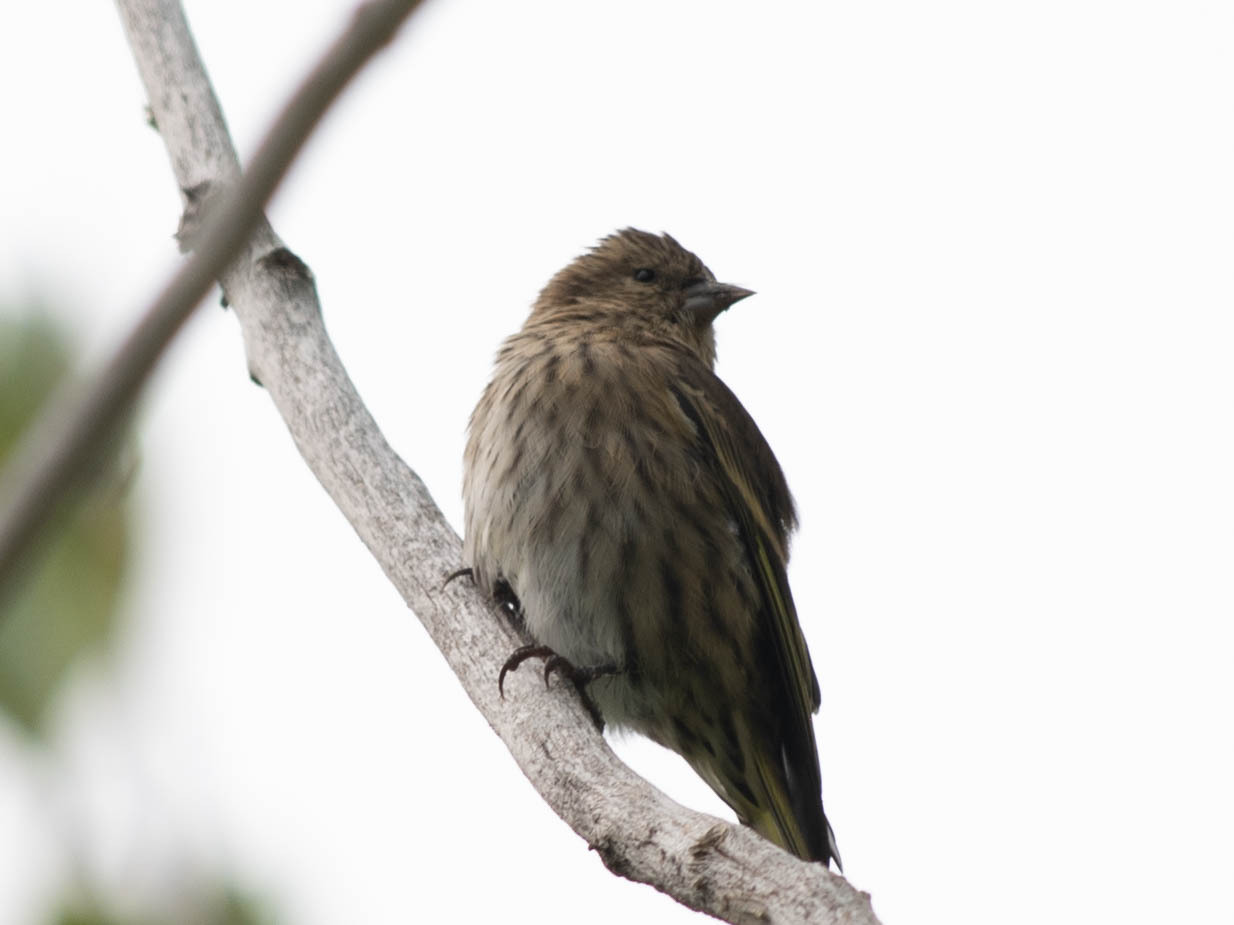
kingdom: Animalia
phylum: Chordata
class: Aves
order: Passeriformes
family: Fringillidae
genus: Spinus
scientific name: Spinus pinus
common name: Pine siskin
